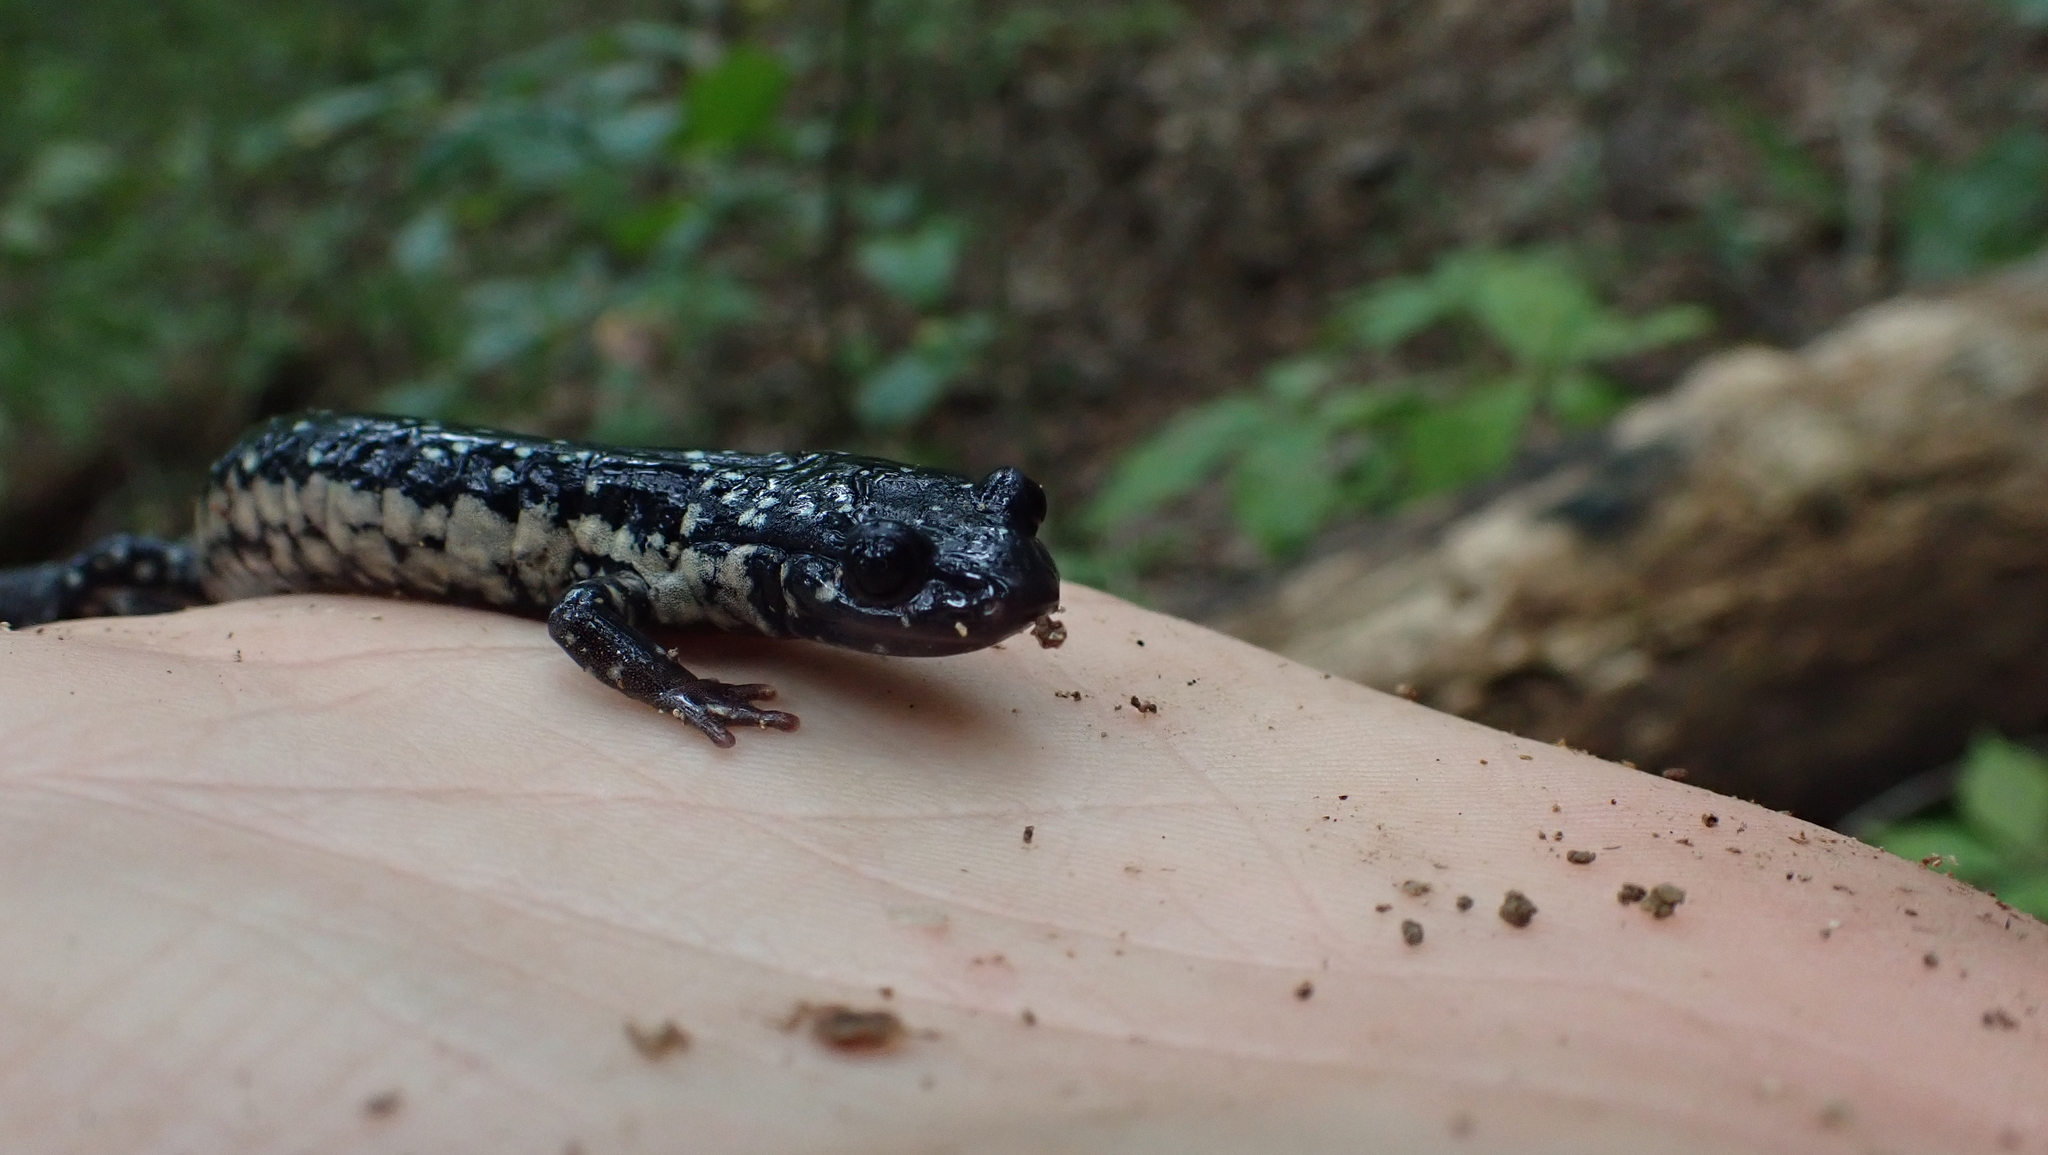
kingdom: Animalia
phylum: Chordata
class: Amphibia
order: Caudata
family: Plethodontidae
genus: Plethodon
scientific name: Plethodon glutinosus
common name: Northern slimy salamander
